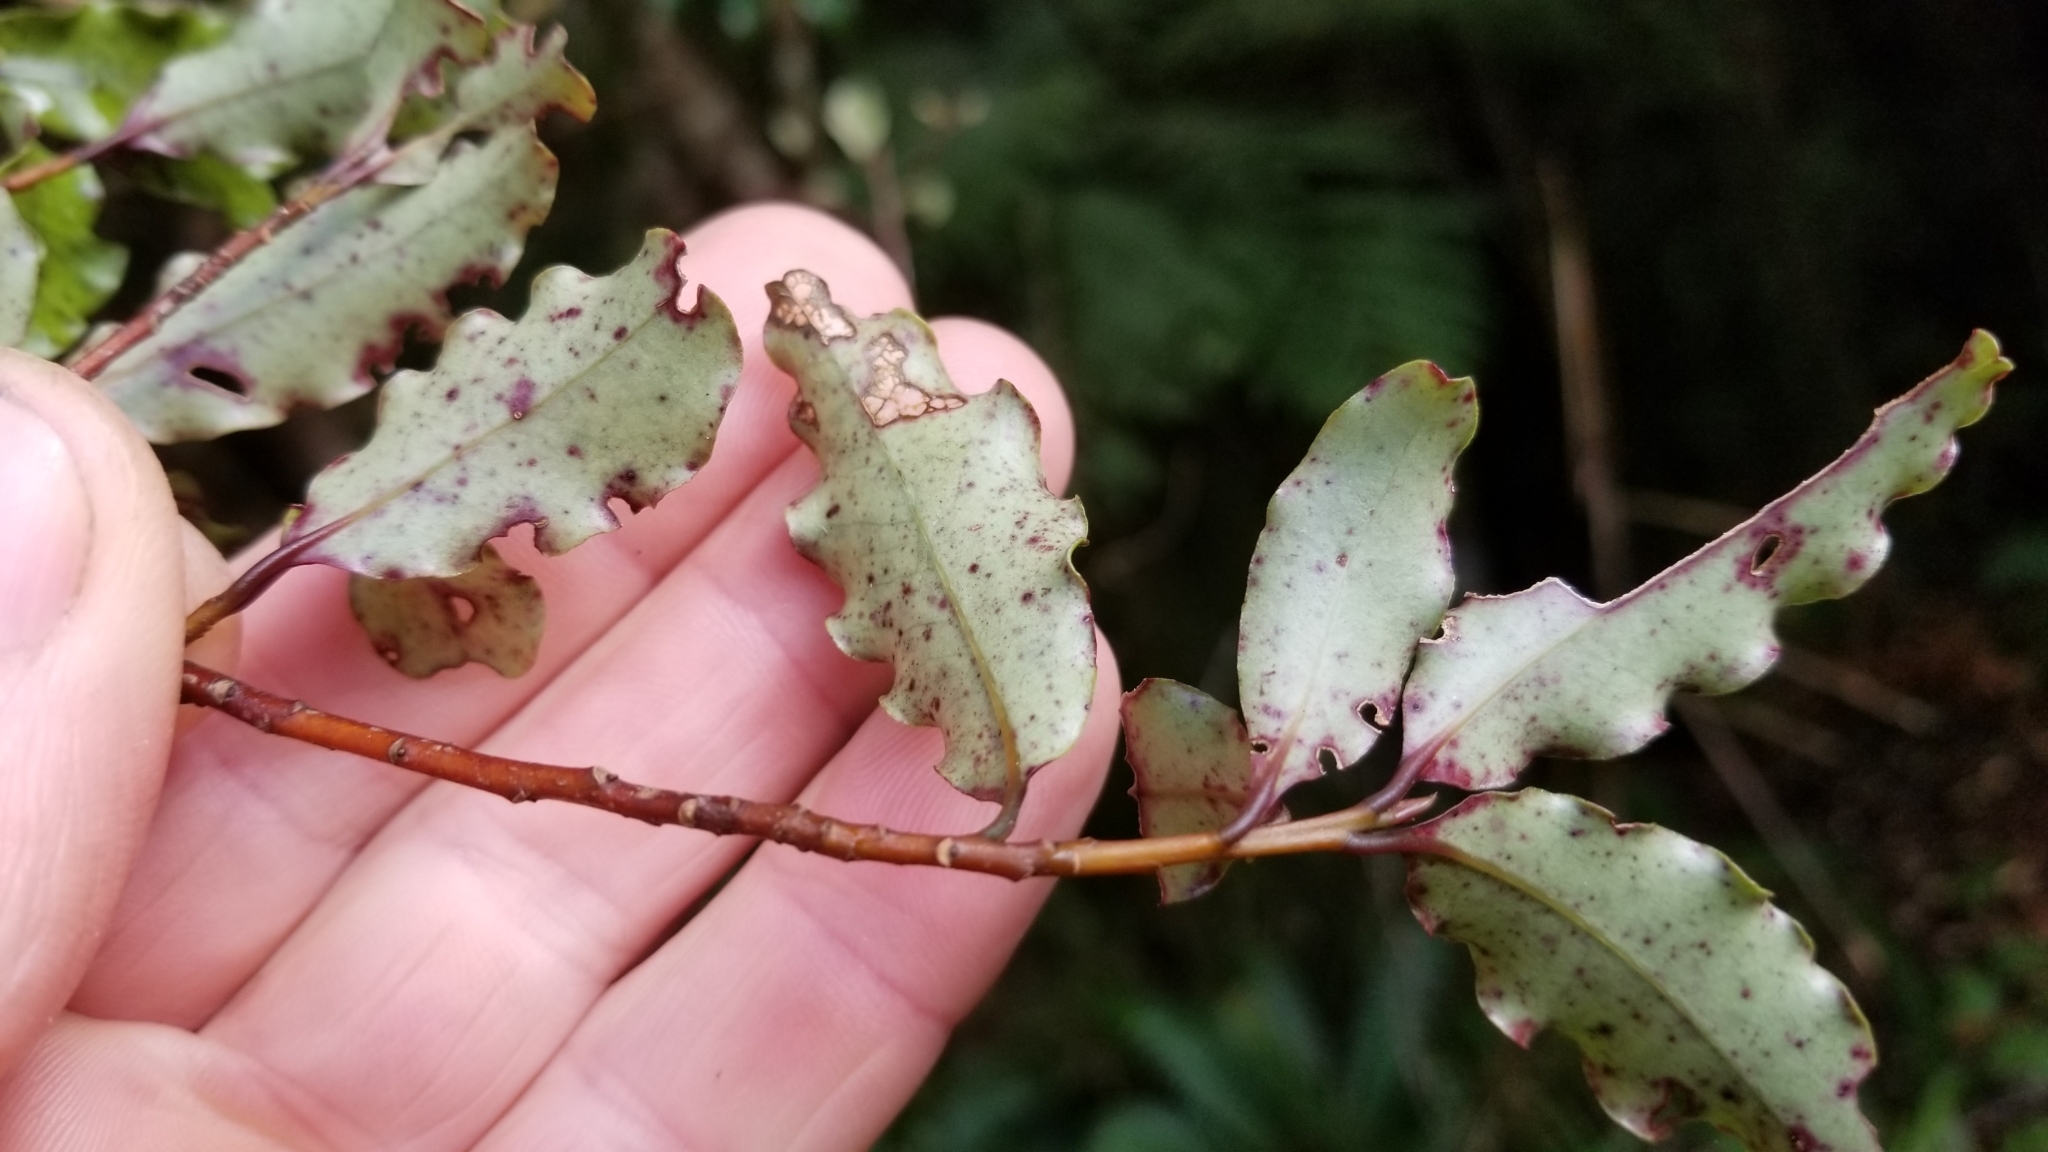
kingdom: Plantae
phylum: Tracheophyta
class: Magnoliopsida
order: Ericales
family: Primulaceae
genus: Myrsine
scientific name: Myrsine australis
